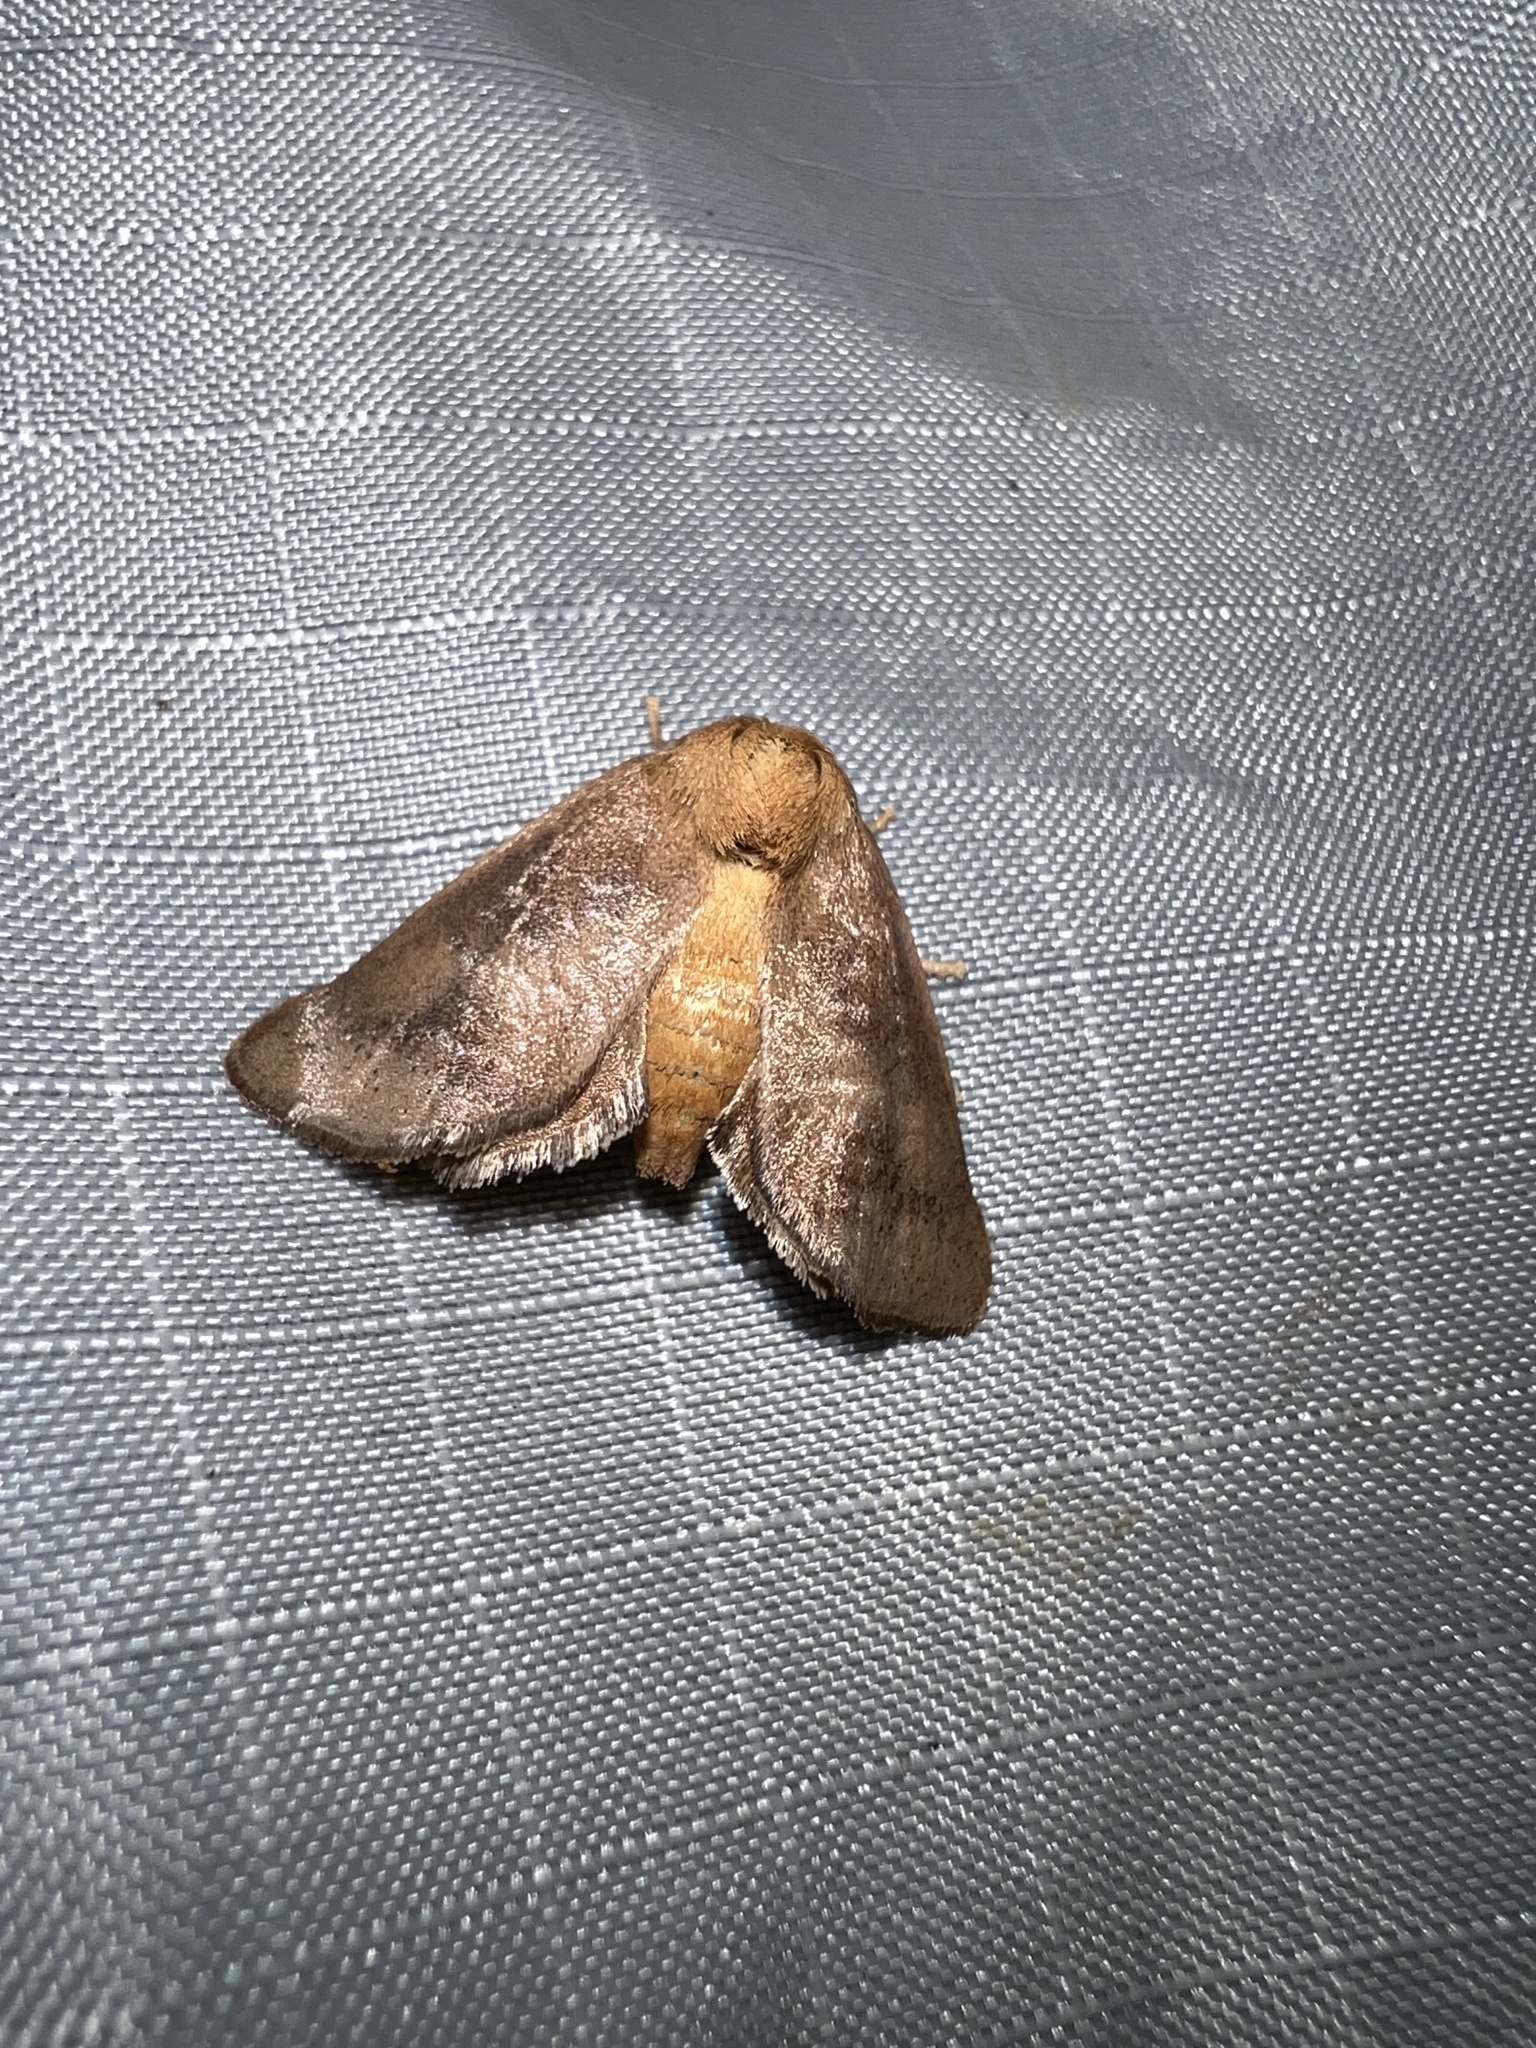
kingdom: Animalia
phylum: Arthropoda
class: Insecta
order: Lepidoptera
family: Limacodidae
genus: Isa
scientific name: Isa textula
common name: Crowned slug moth
